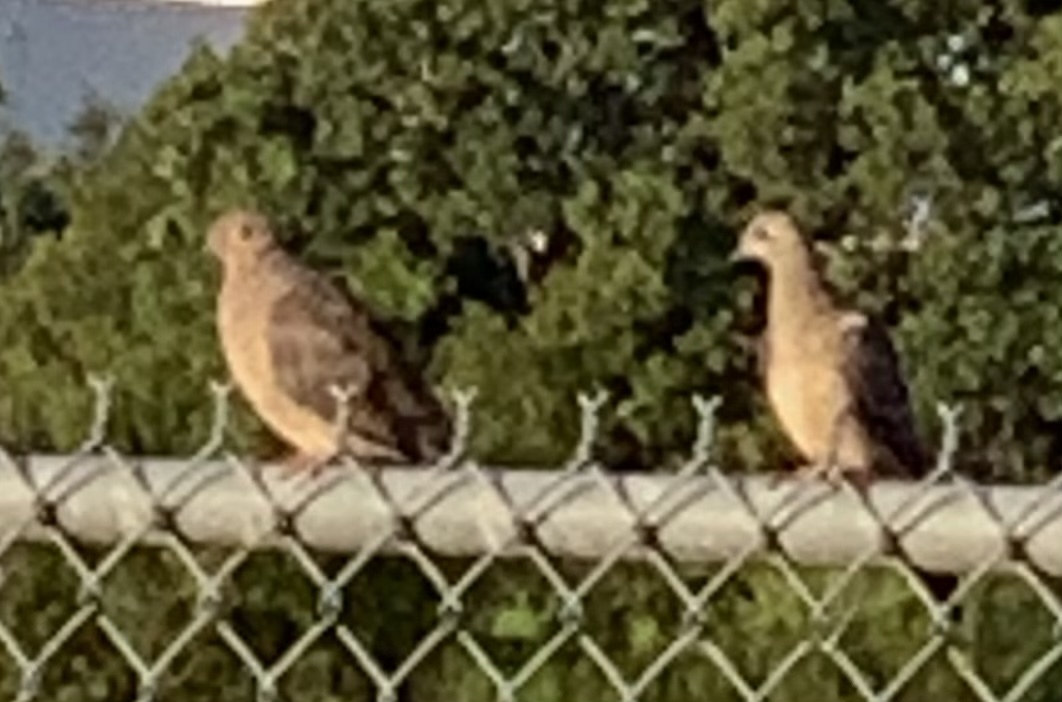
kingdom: Animalia
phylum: Chordata
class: Aves
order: Columbiformes
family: Columbidae
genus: Zenaida
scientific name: Zenaida macroura
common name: Mourning dove
